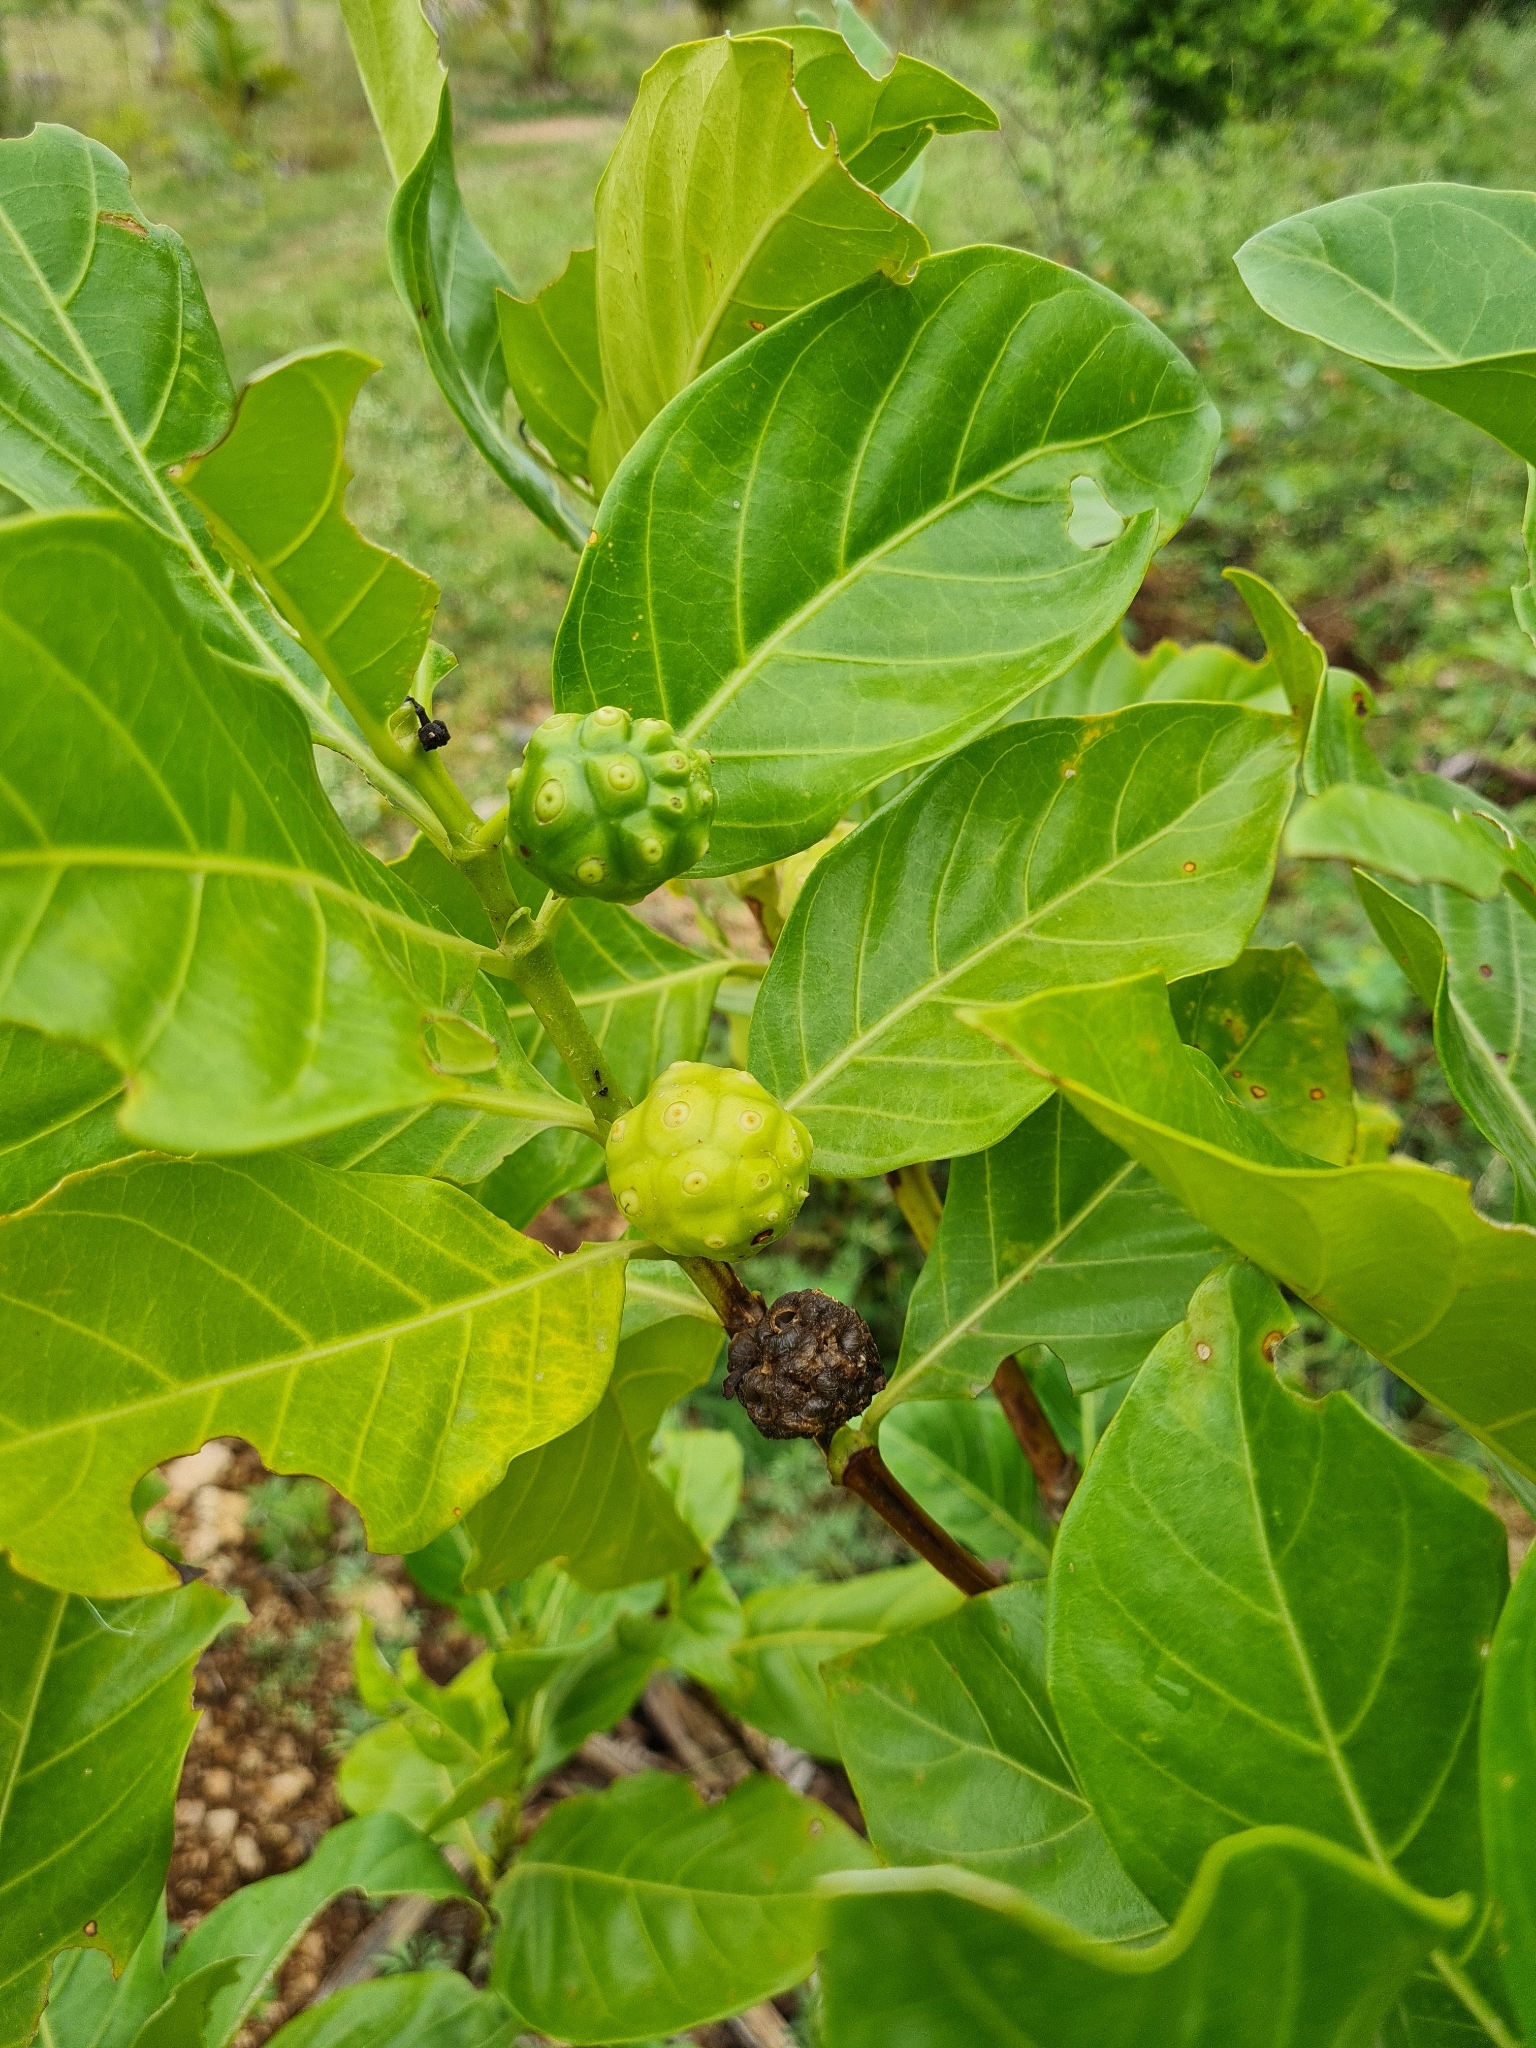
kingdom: Plantae
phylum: Tracheophyta
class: Magnoliopsida
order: Gentianales
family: Rubiaceae
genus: Morinda
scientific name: Morinda citrifolia
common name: Indian-mulberry
